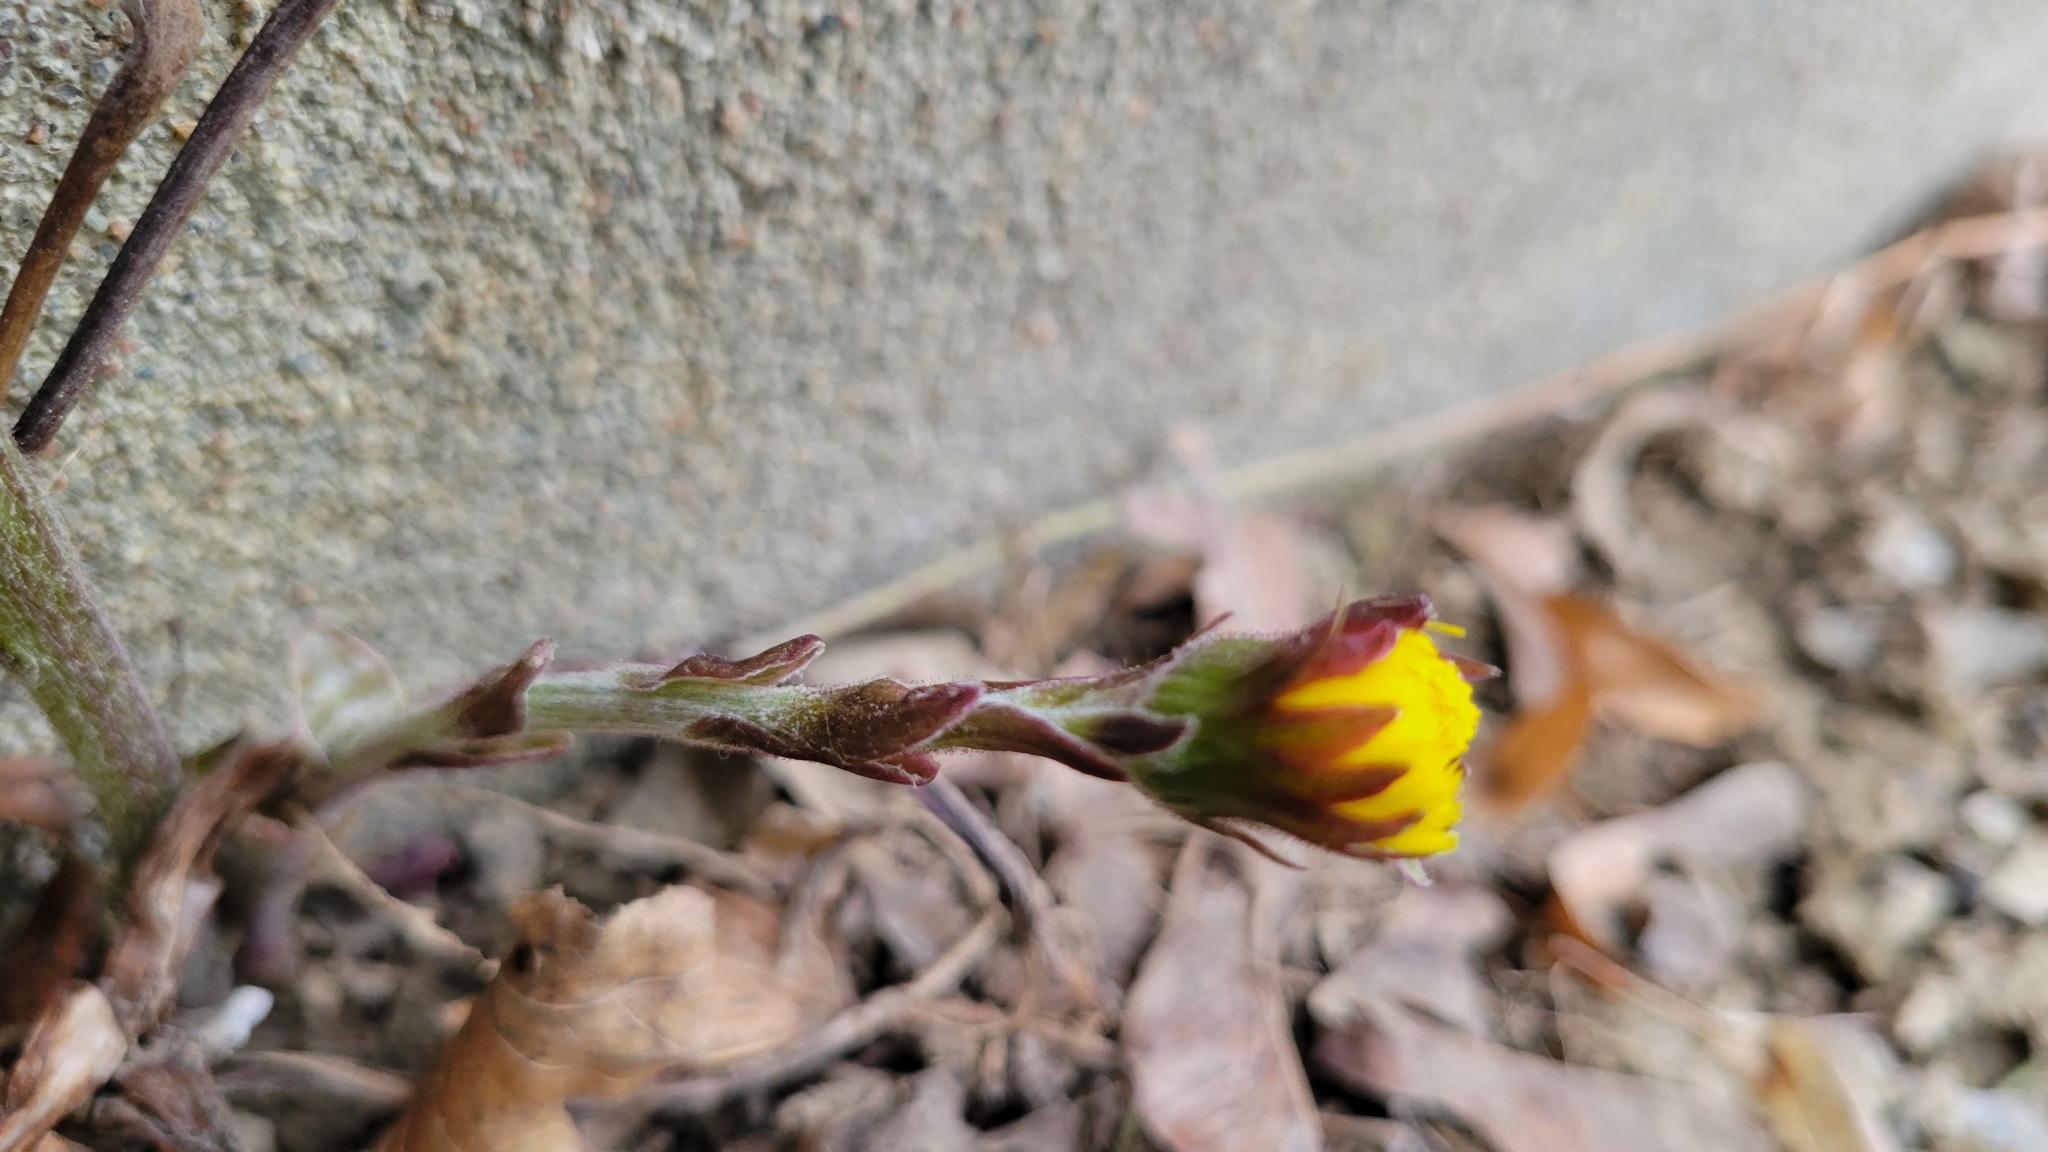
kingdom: Plantae
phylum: Tracheophyta
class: Magnoliopsida
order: Asterales
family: Asteraceae
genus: Tussilago
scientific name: Tussilago farfara
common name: Coltsfoot
